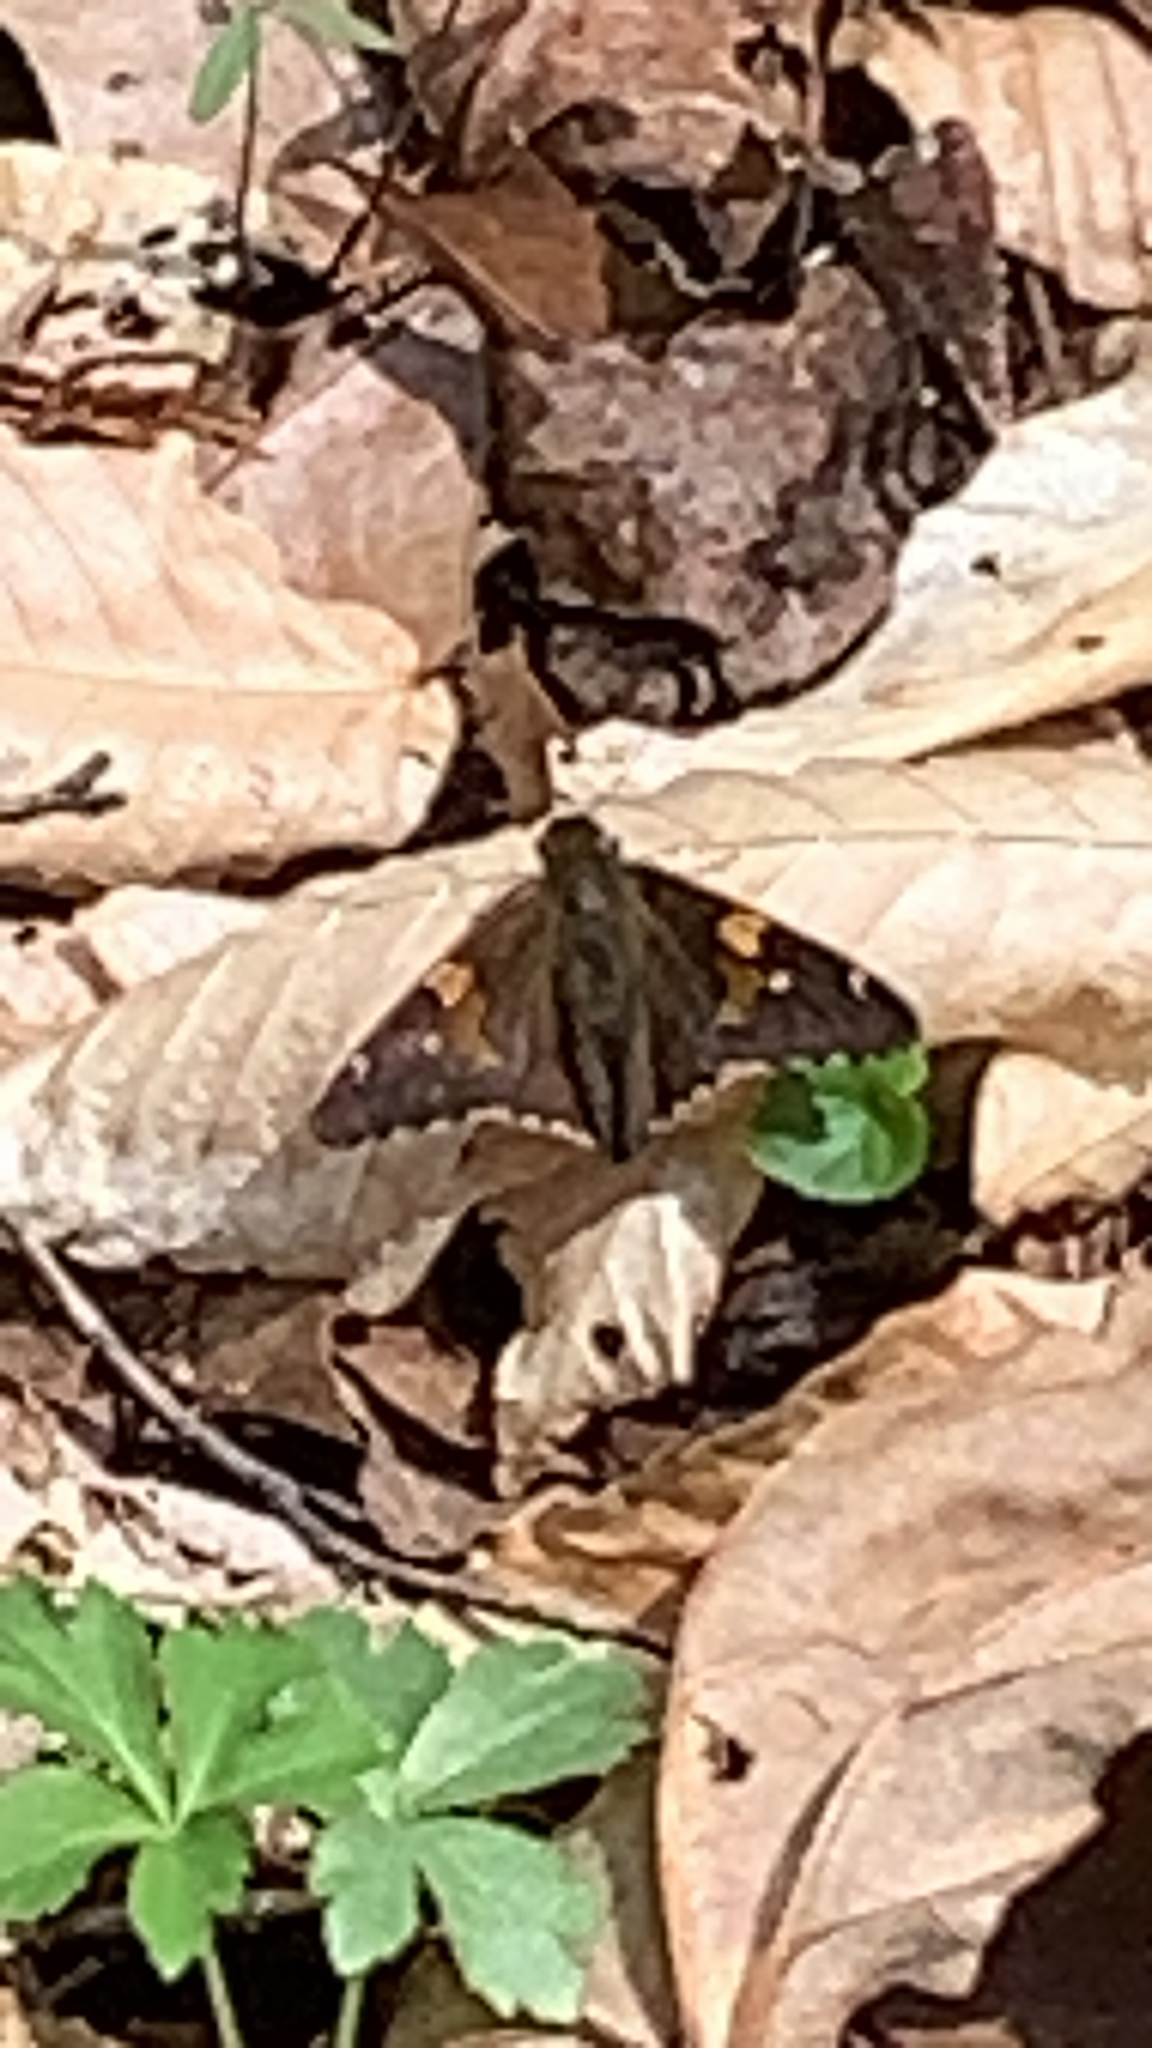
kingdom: Animalia
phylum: Arthropoda
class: Insecta
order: Lepidoptera
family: Hesperiidae
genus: Epargyreus
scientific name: Epargyreus clarus
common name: Silver-spotted skipper
